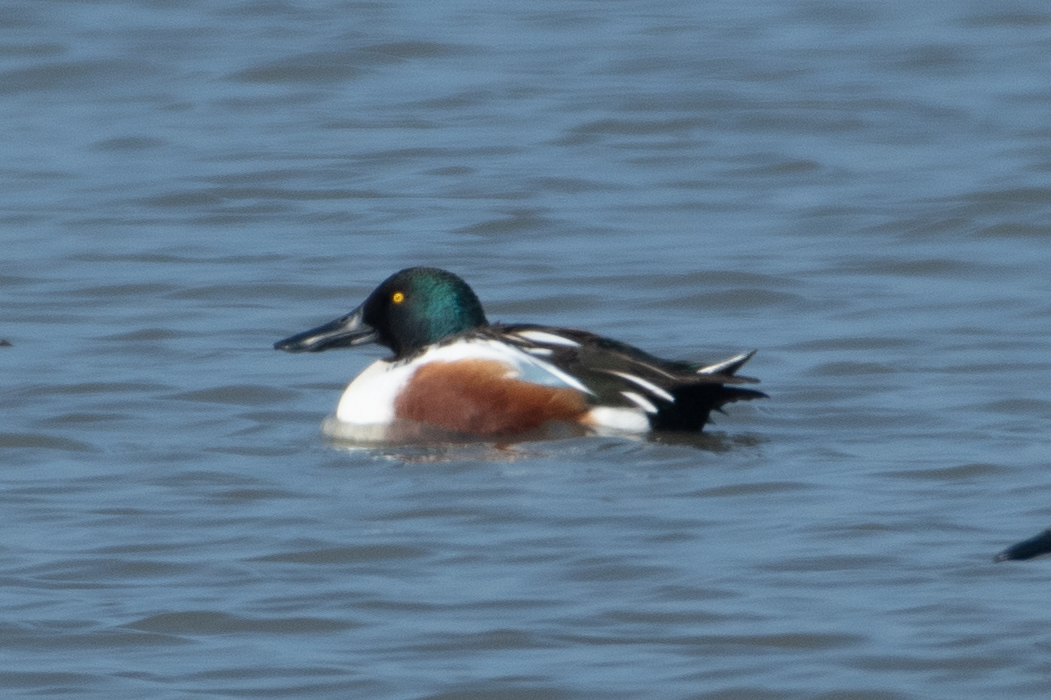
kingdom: Animalia
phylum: Chordata
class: Aves
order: Anseriformes
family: Anatidae
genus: Spatula
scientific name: Spatula clypeata
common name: Northern shoveler
